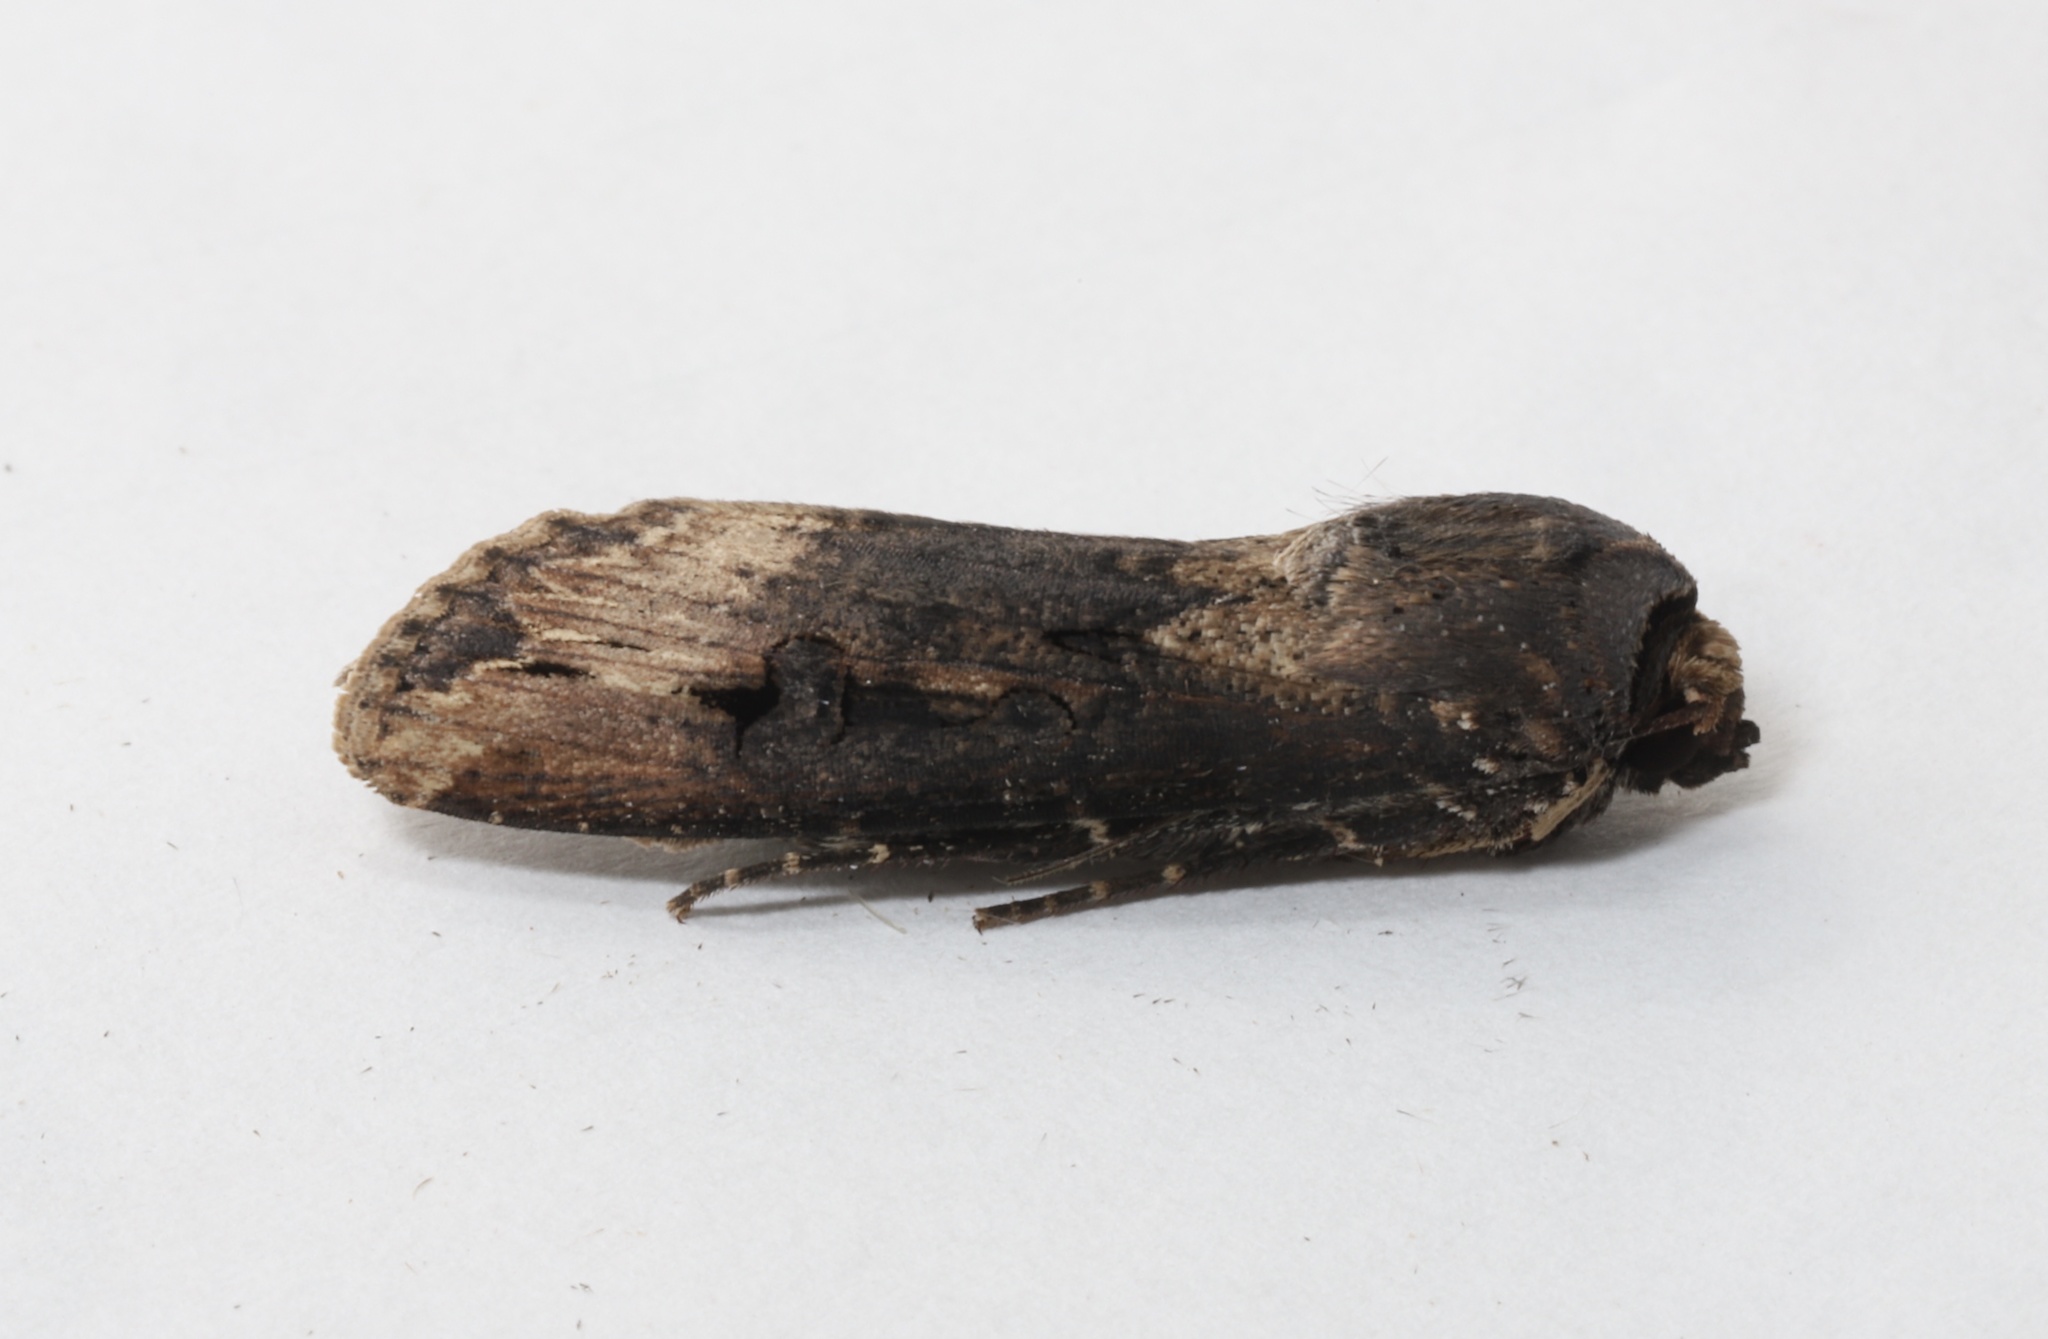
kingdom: Animalia
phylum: Arthropoda
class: Insecta
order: Lepidoptera
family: Noctuidae
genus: Agrotis
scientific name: Agrotis ipsilon
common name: Dark sword-grass
